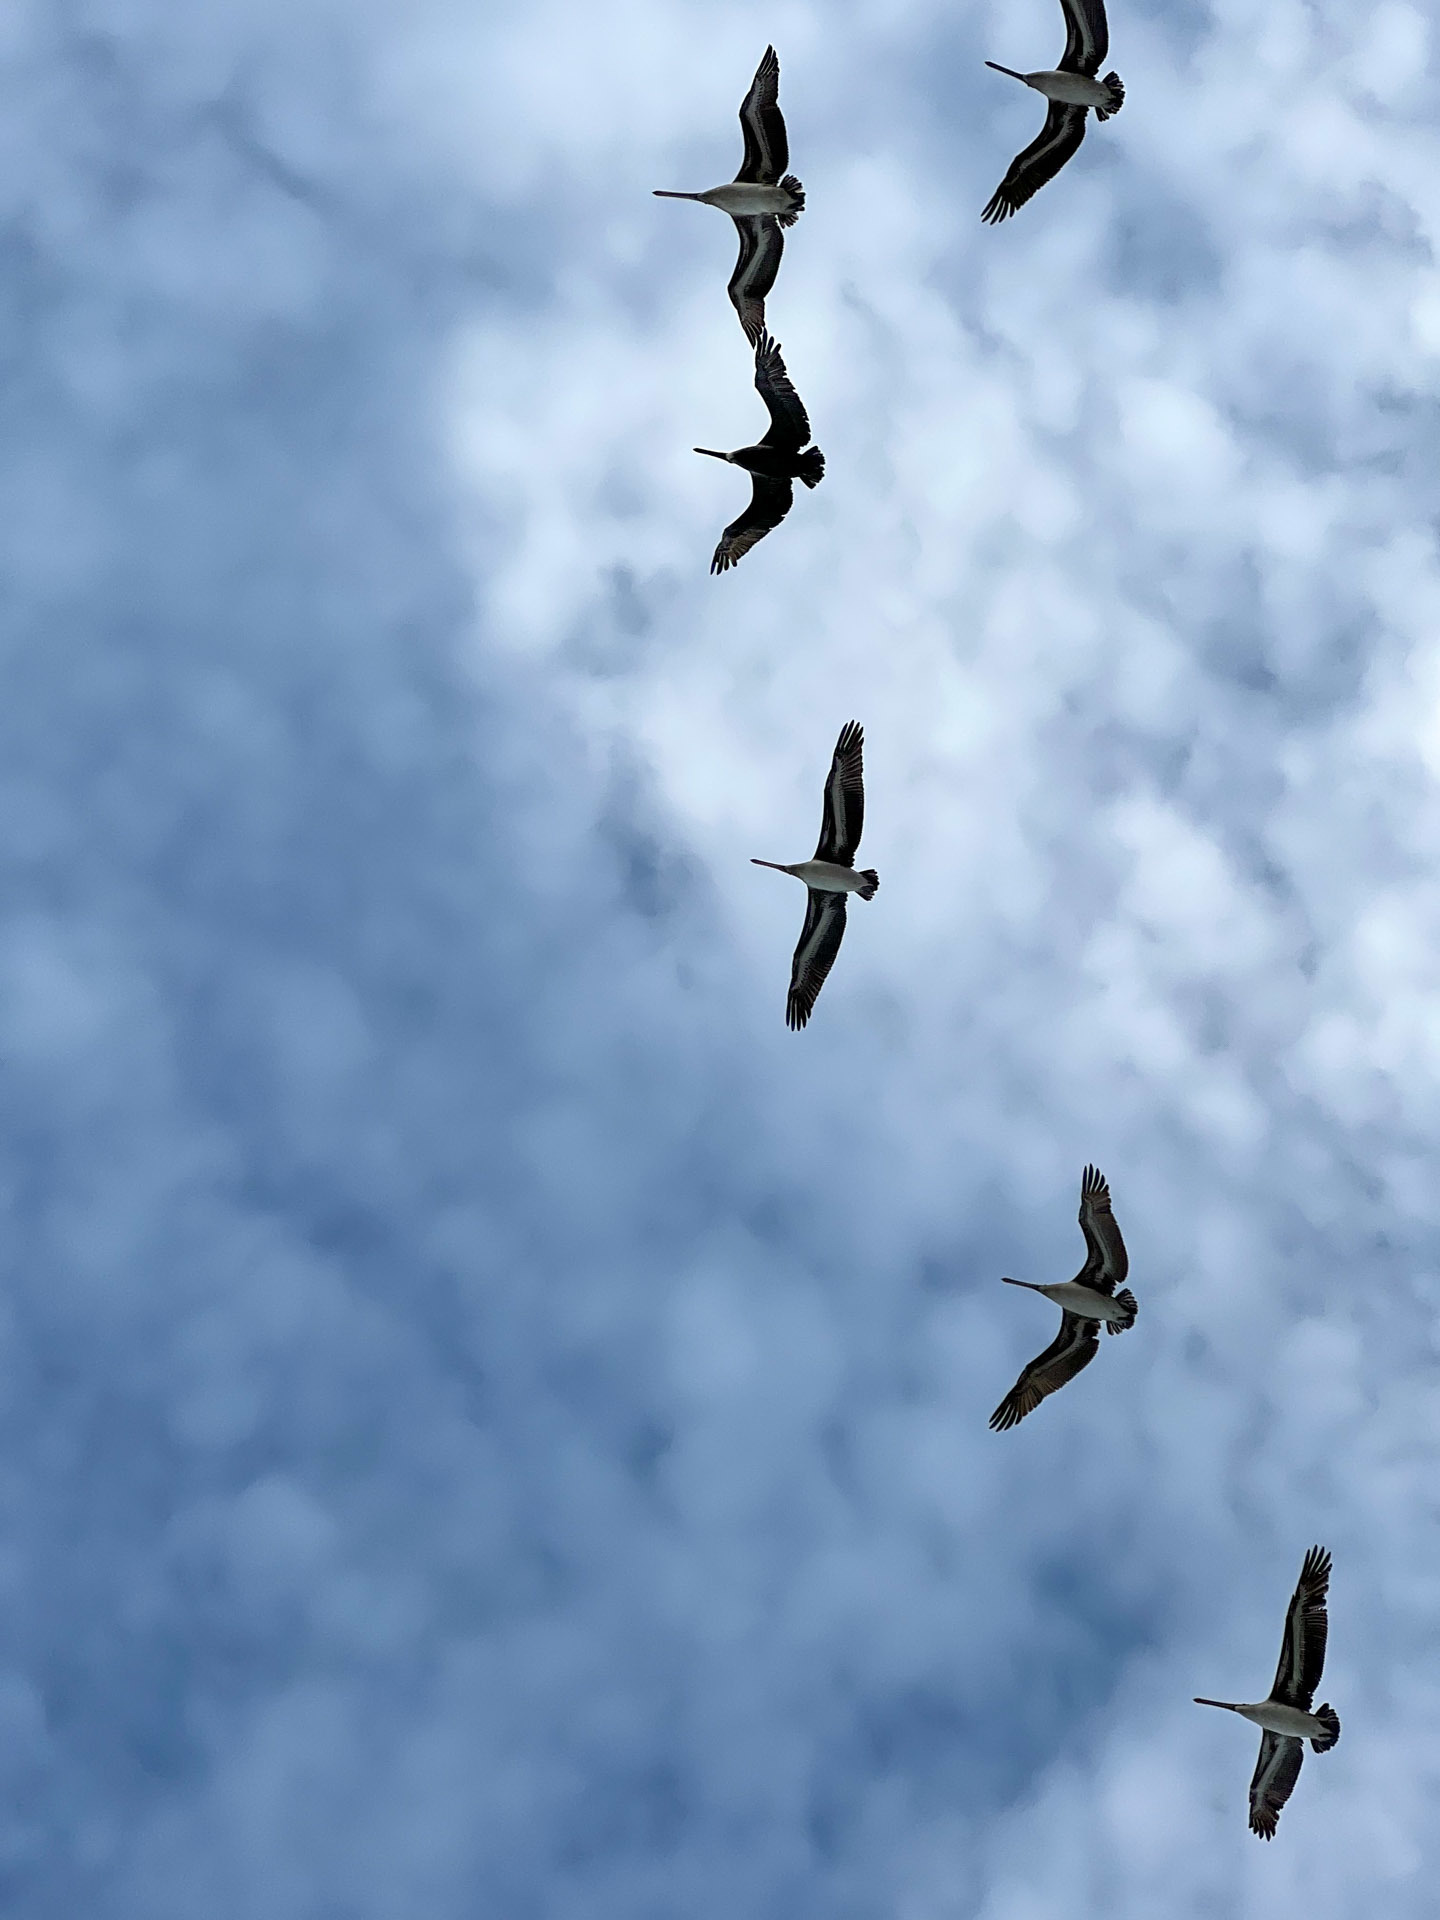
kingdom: Animalia
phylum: Chordata
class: Aves
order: Pelecaniformes
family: Pelecanidae
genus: Pelecanus
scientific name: Pelecanus occidentalis
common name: Brown pelican
